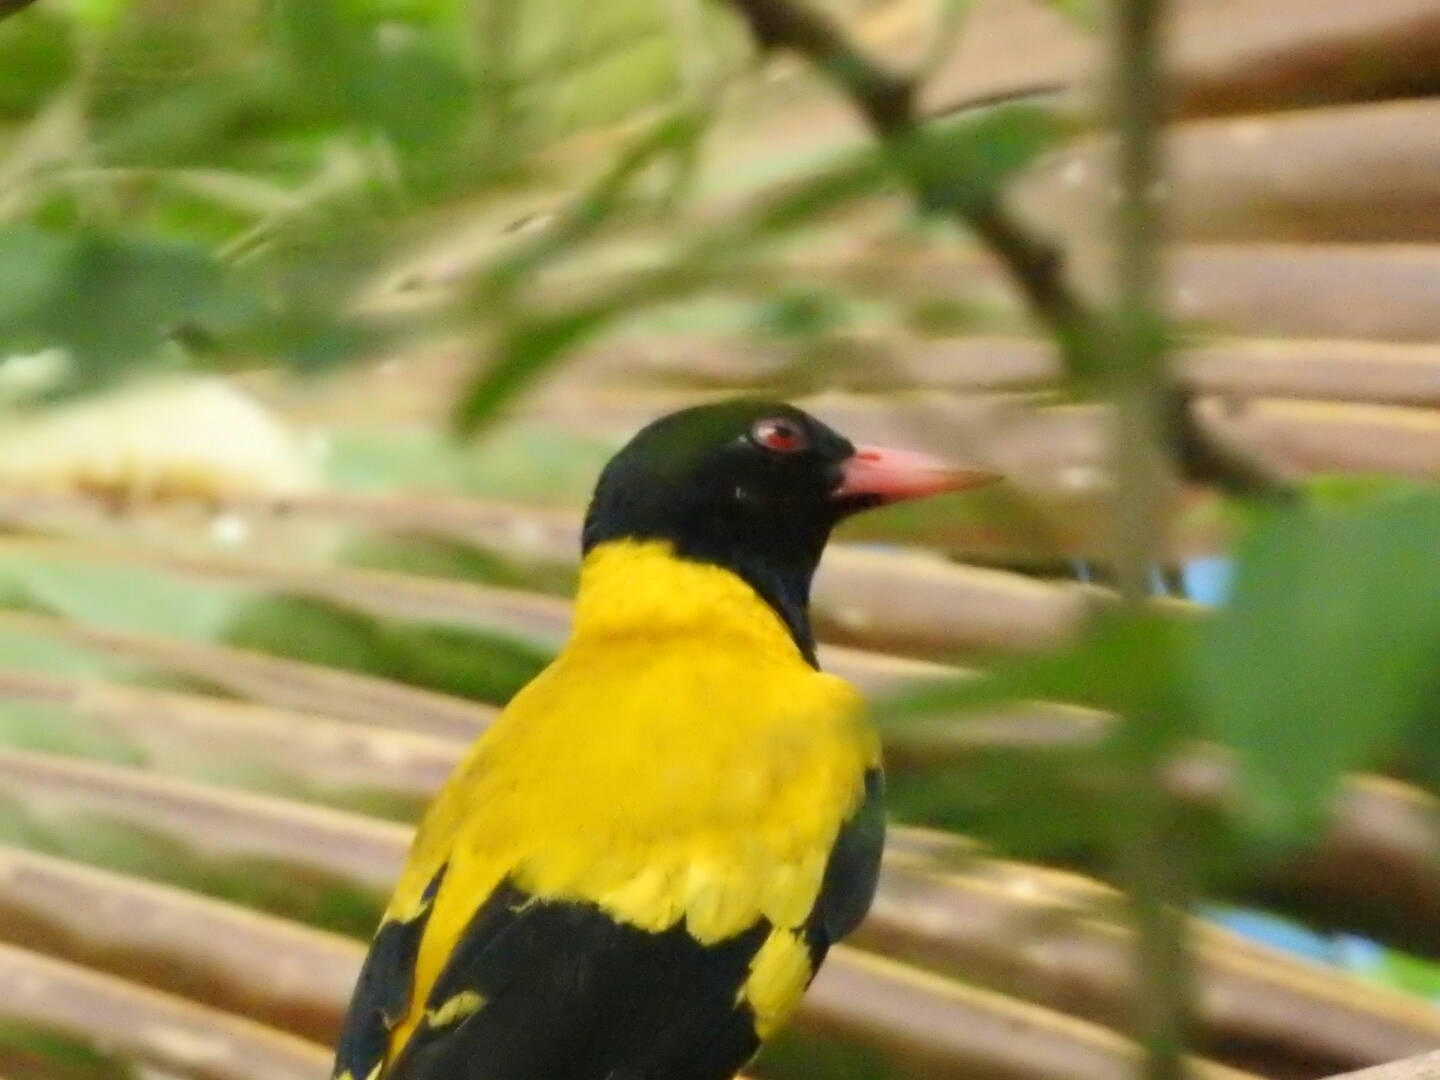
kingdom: Animalia
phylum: Chordata
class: Aves
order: Passeriformes
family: Oriolidae
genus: Oriolus
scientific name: Oriolus xanthornus
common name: Black-hooded oriole
